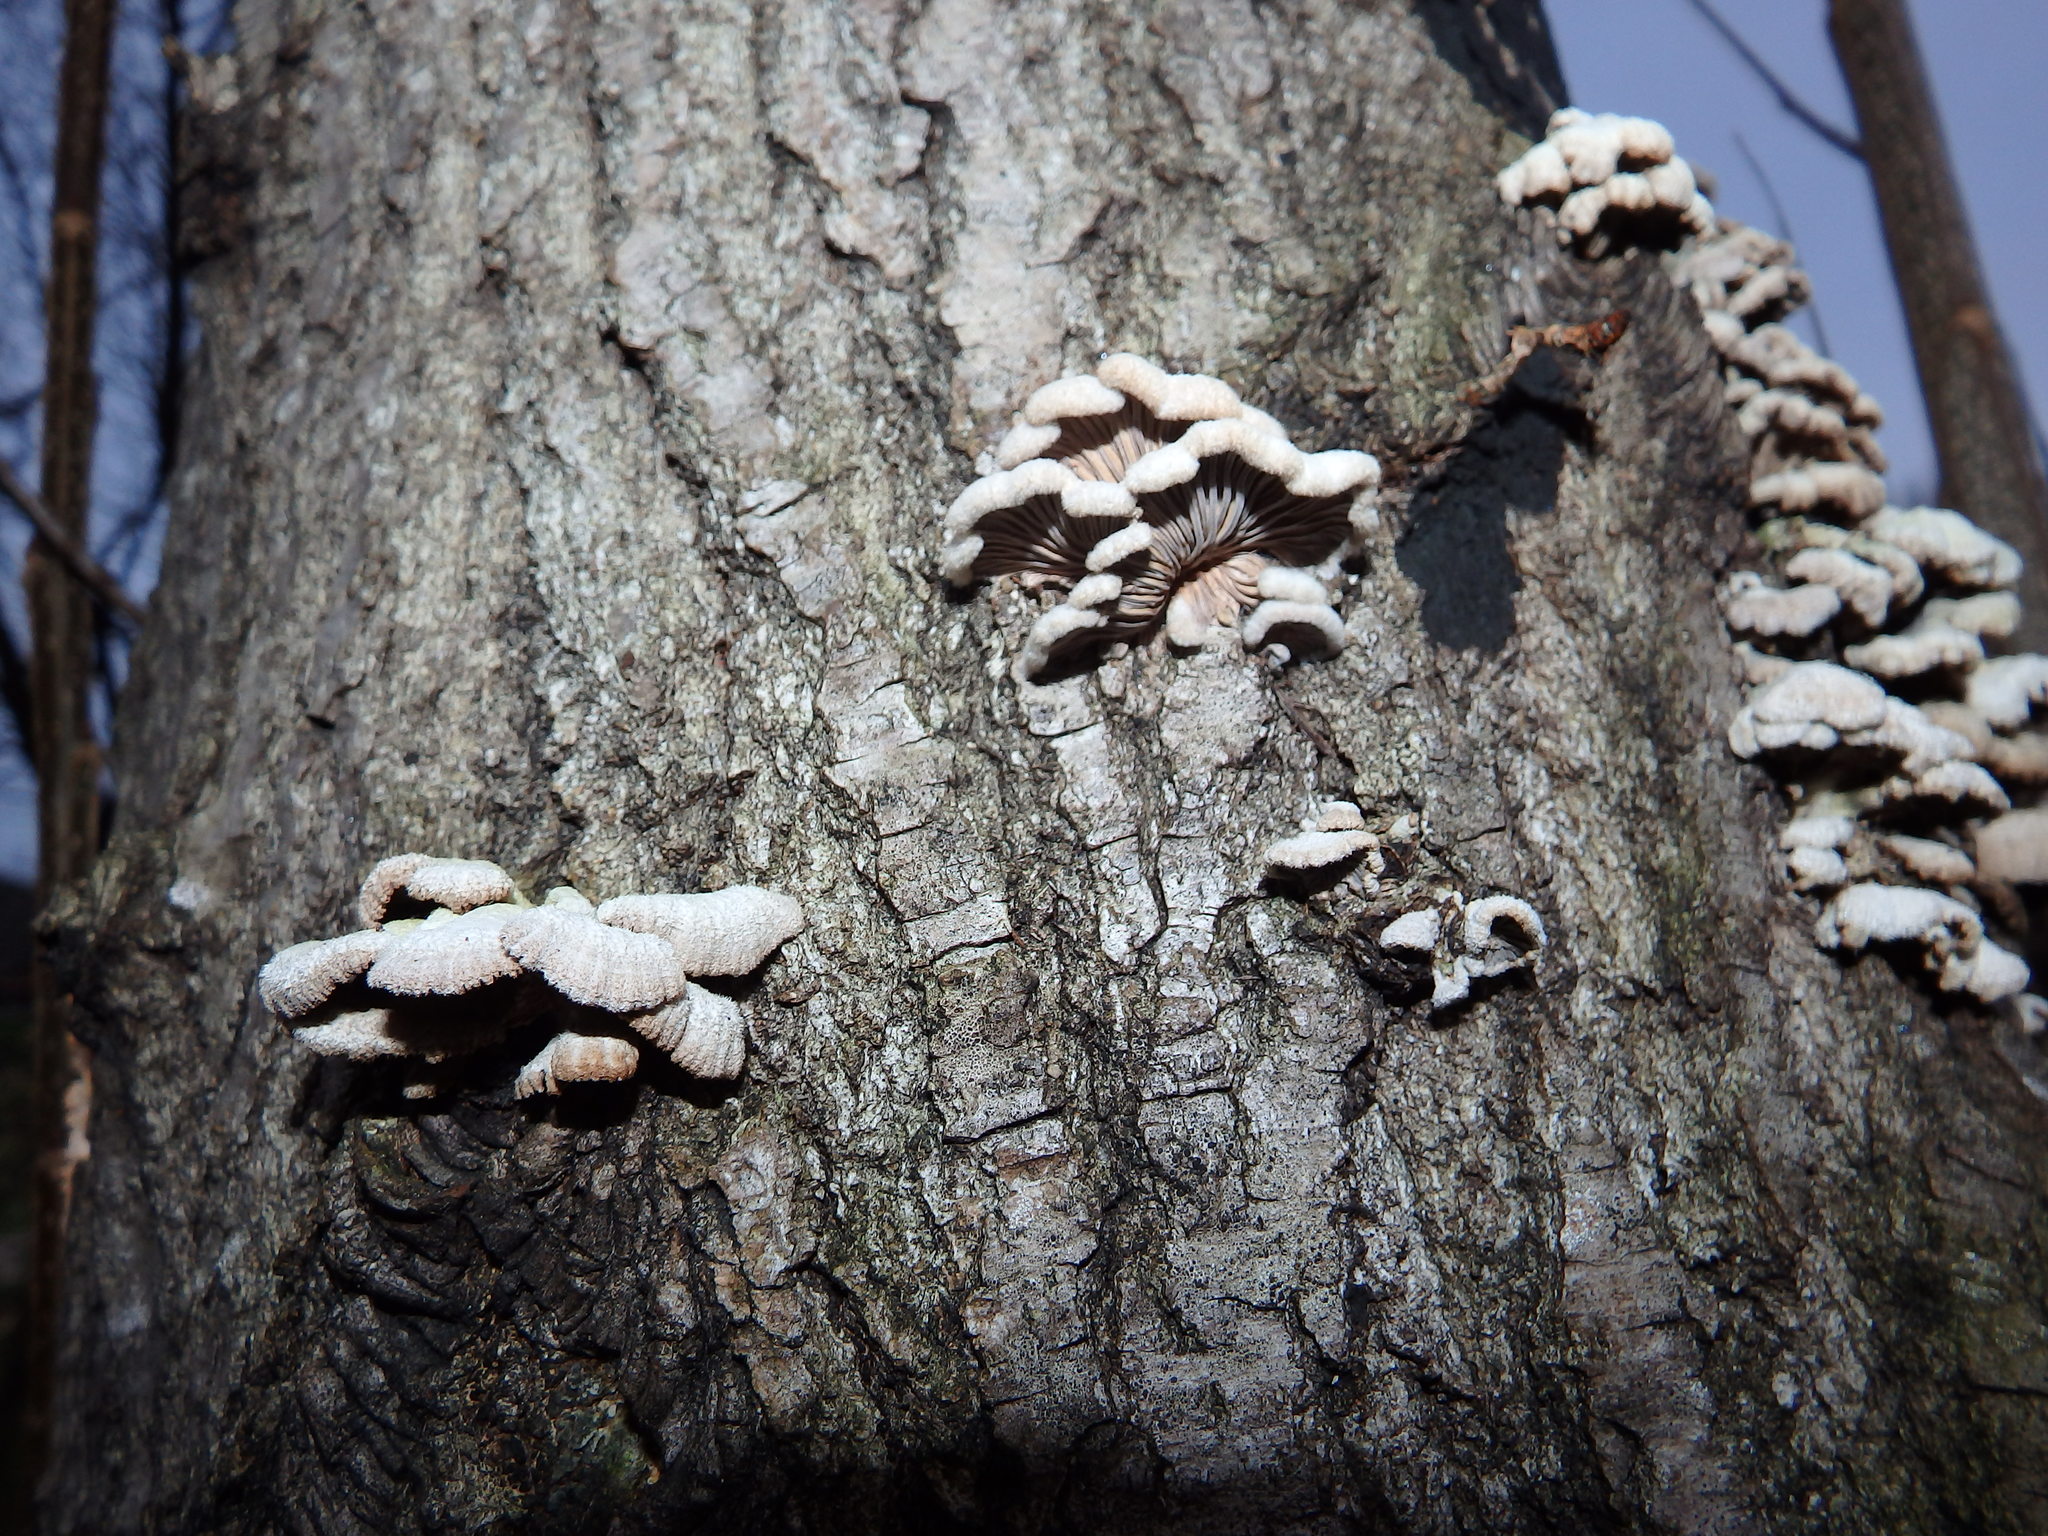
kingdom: Fungi
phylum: Basidiomycota
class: Agaricomycetes
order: Agaricales
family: Schizophyllaceae
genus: Schizophyllum
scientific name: Schizophyllum commune
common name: Common porecrust
